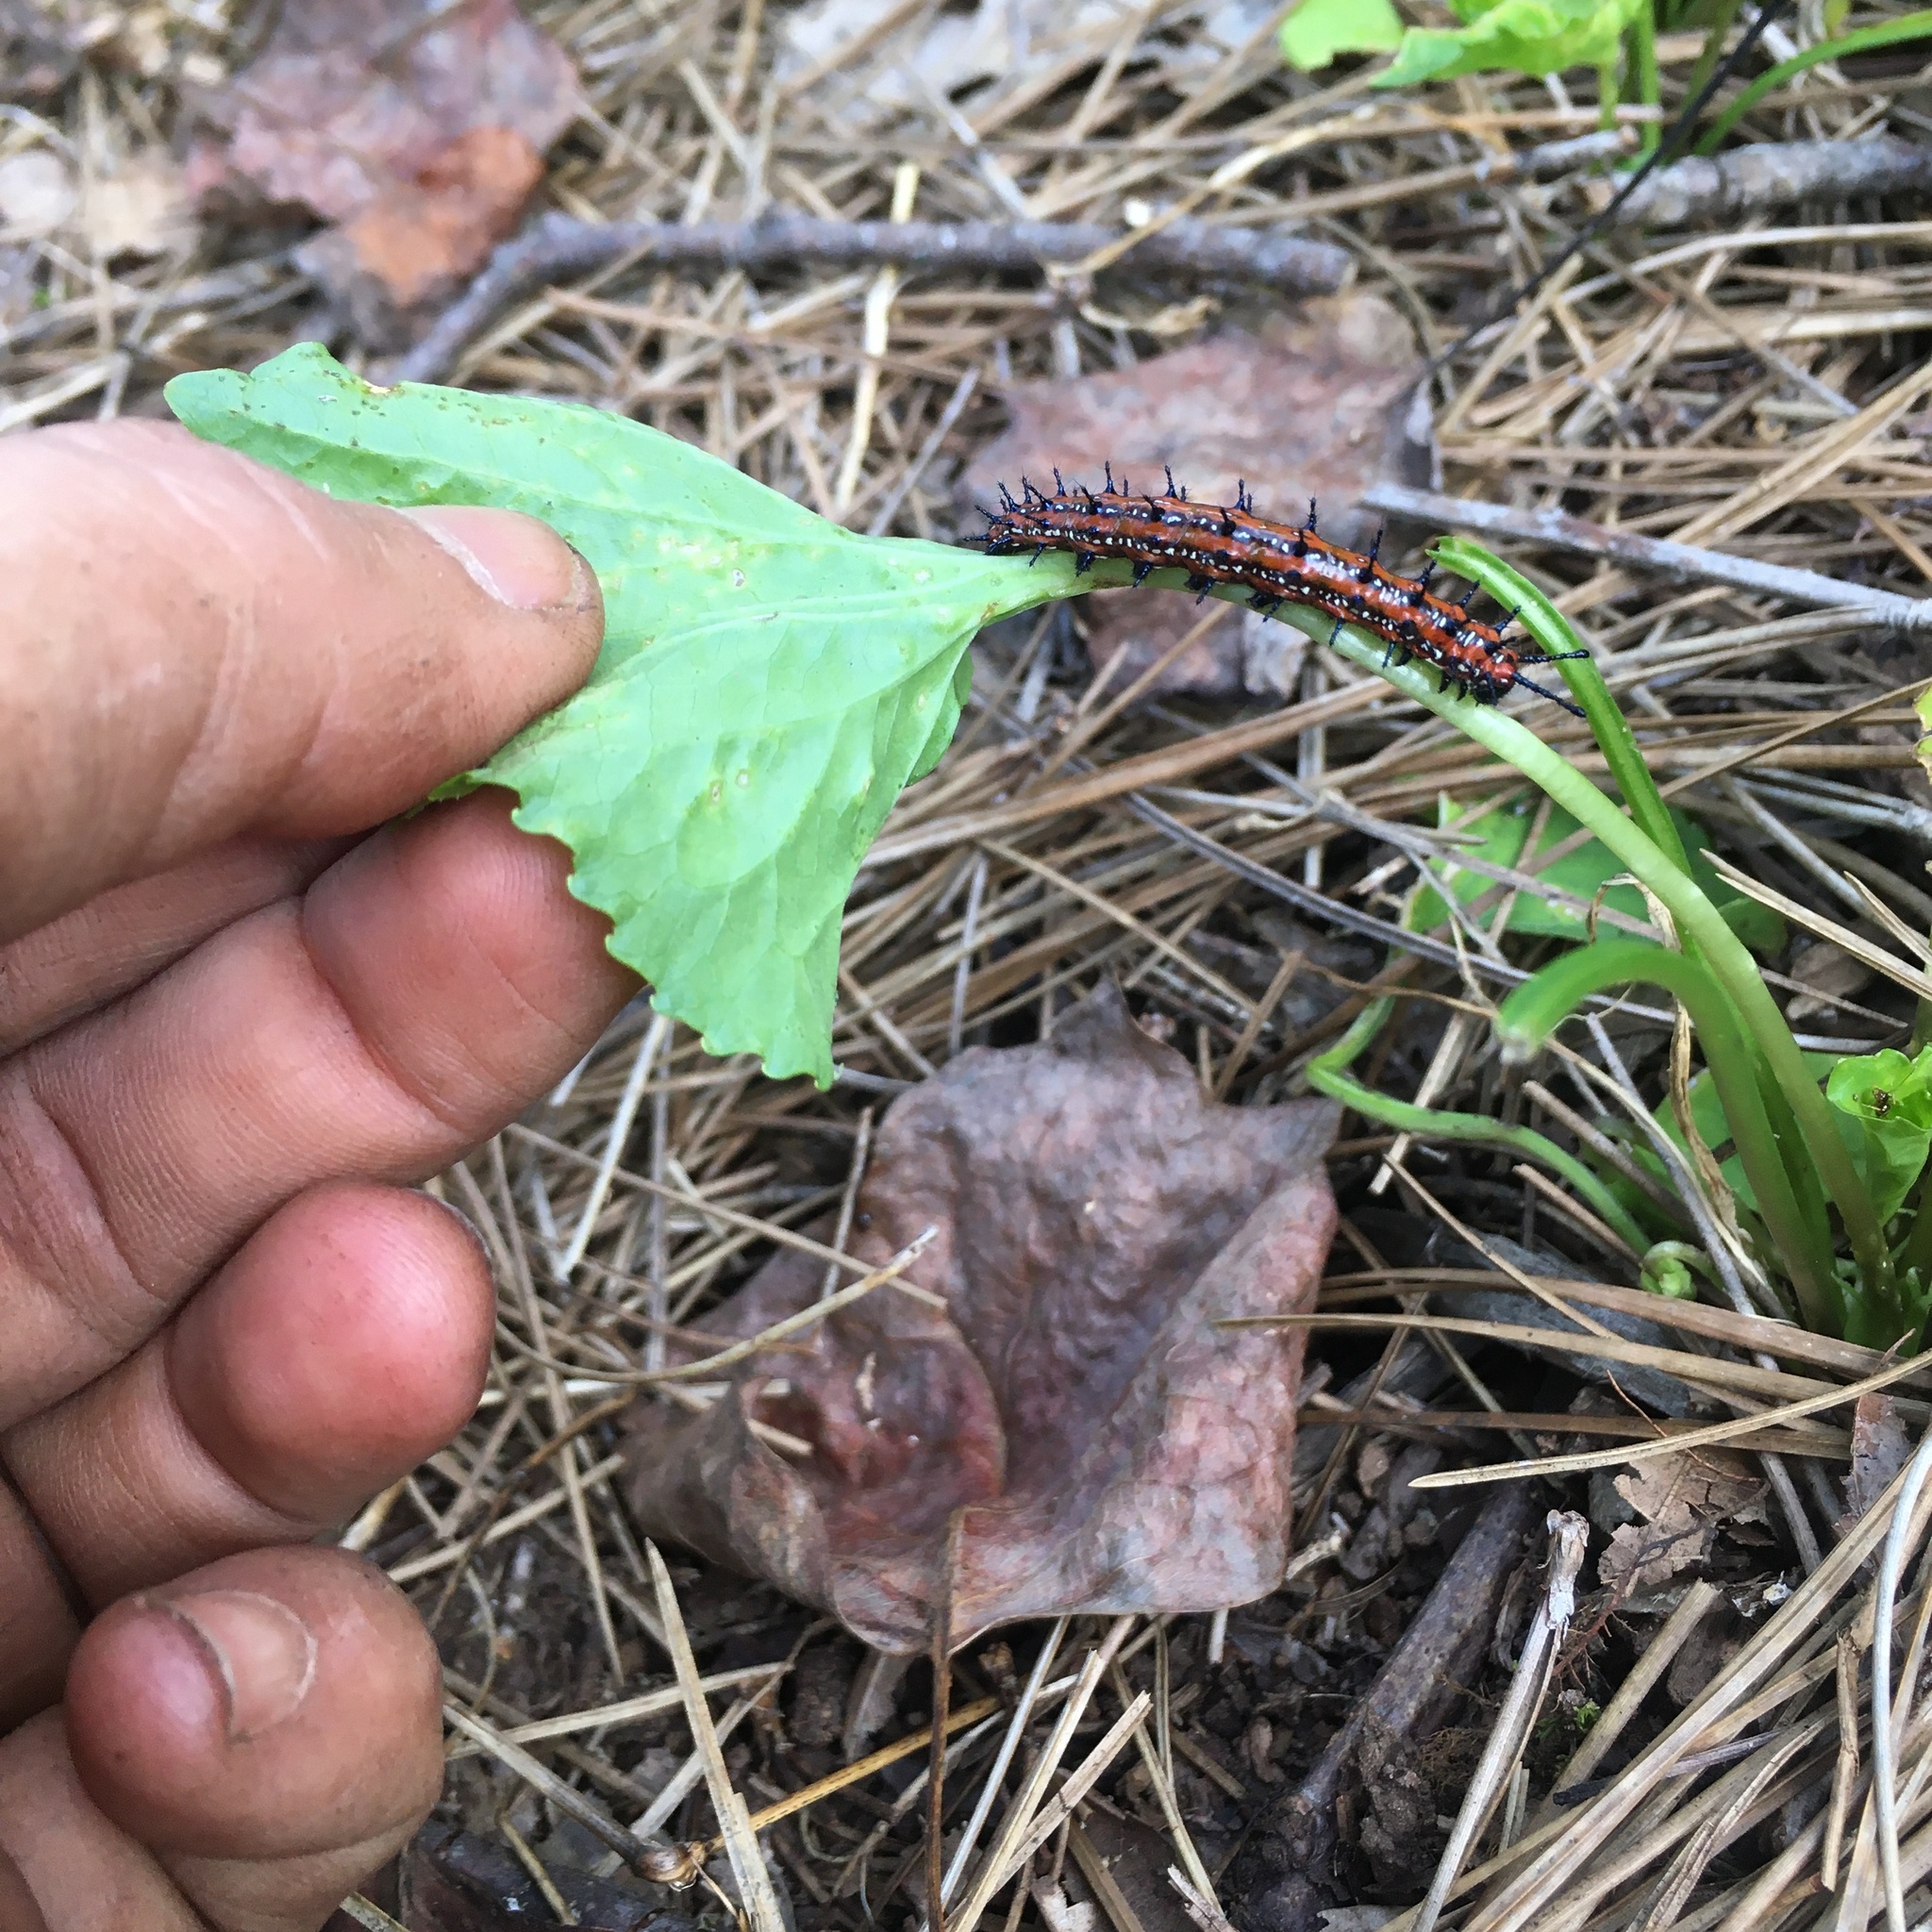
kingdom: Animalia
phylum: Arthropoda
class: Insecta
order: Lepidoptera
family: Nymphalidae
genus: Euptoieta
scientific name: Euptoieta claudia
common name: Variegated fritillary
